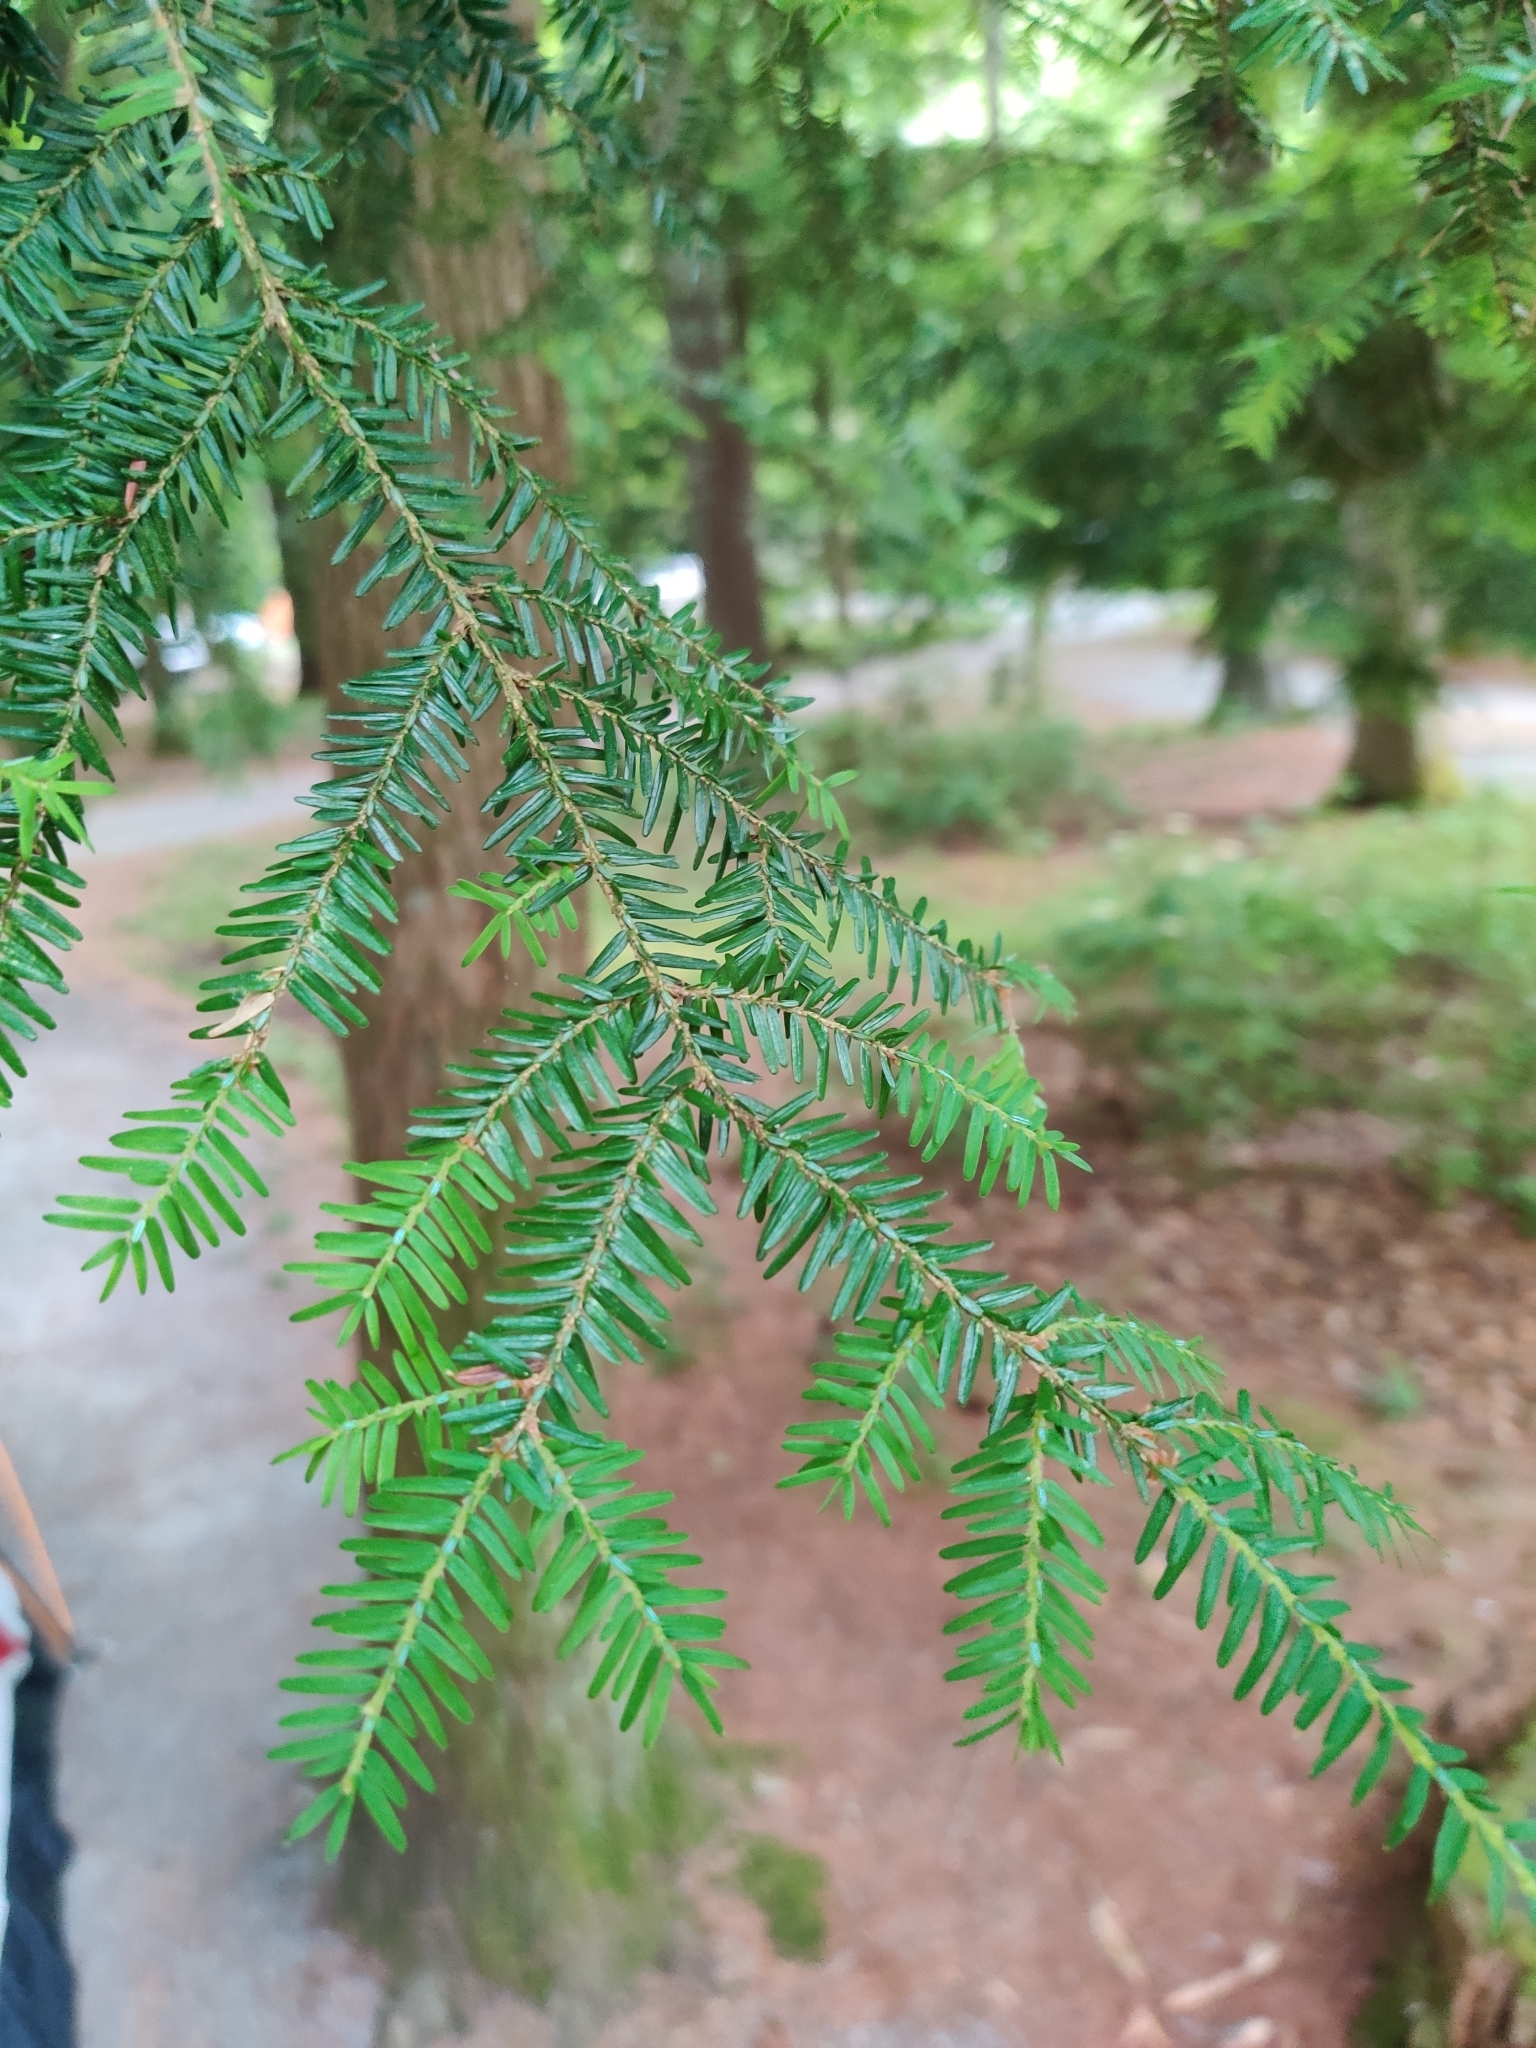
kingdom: Plantae
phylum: Tracheophyta
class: Pinopsida
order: Pinales
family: Pinaceae
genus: Tsuga
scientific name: Tsuga canadensis
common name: Eastern hemlock
